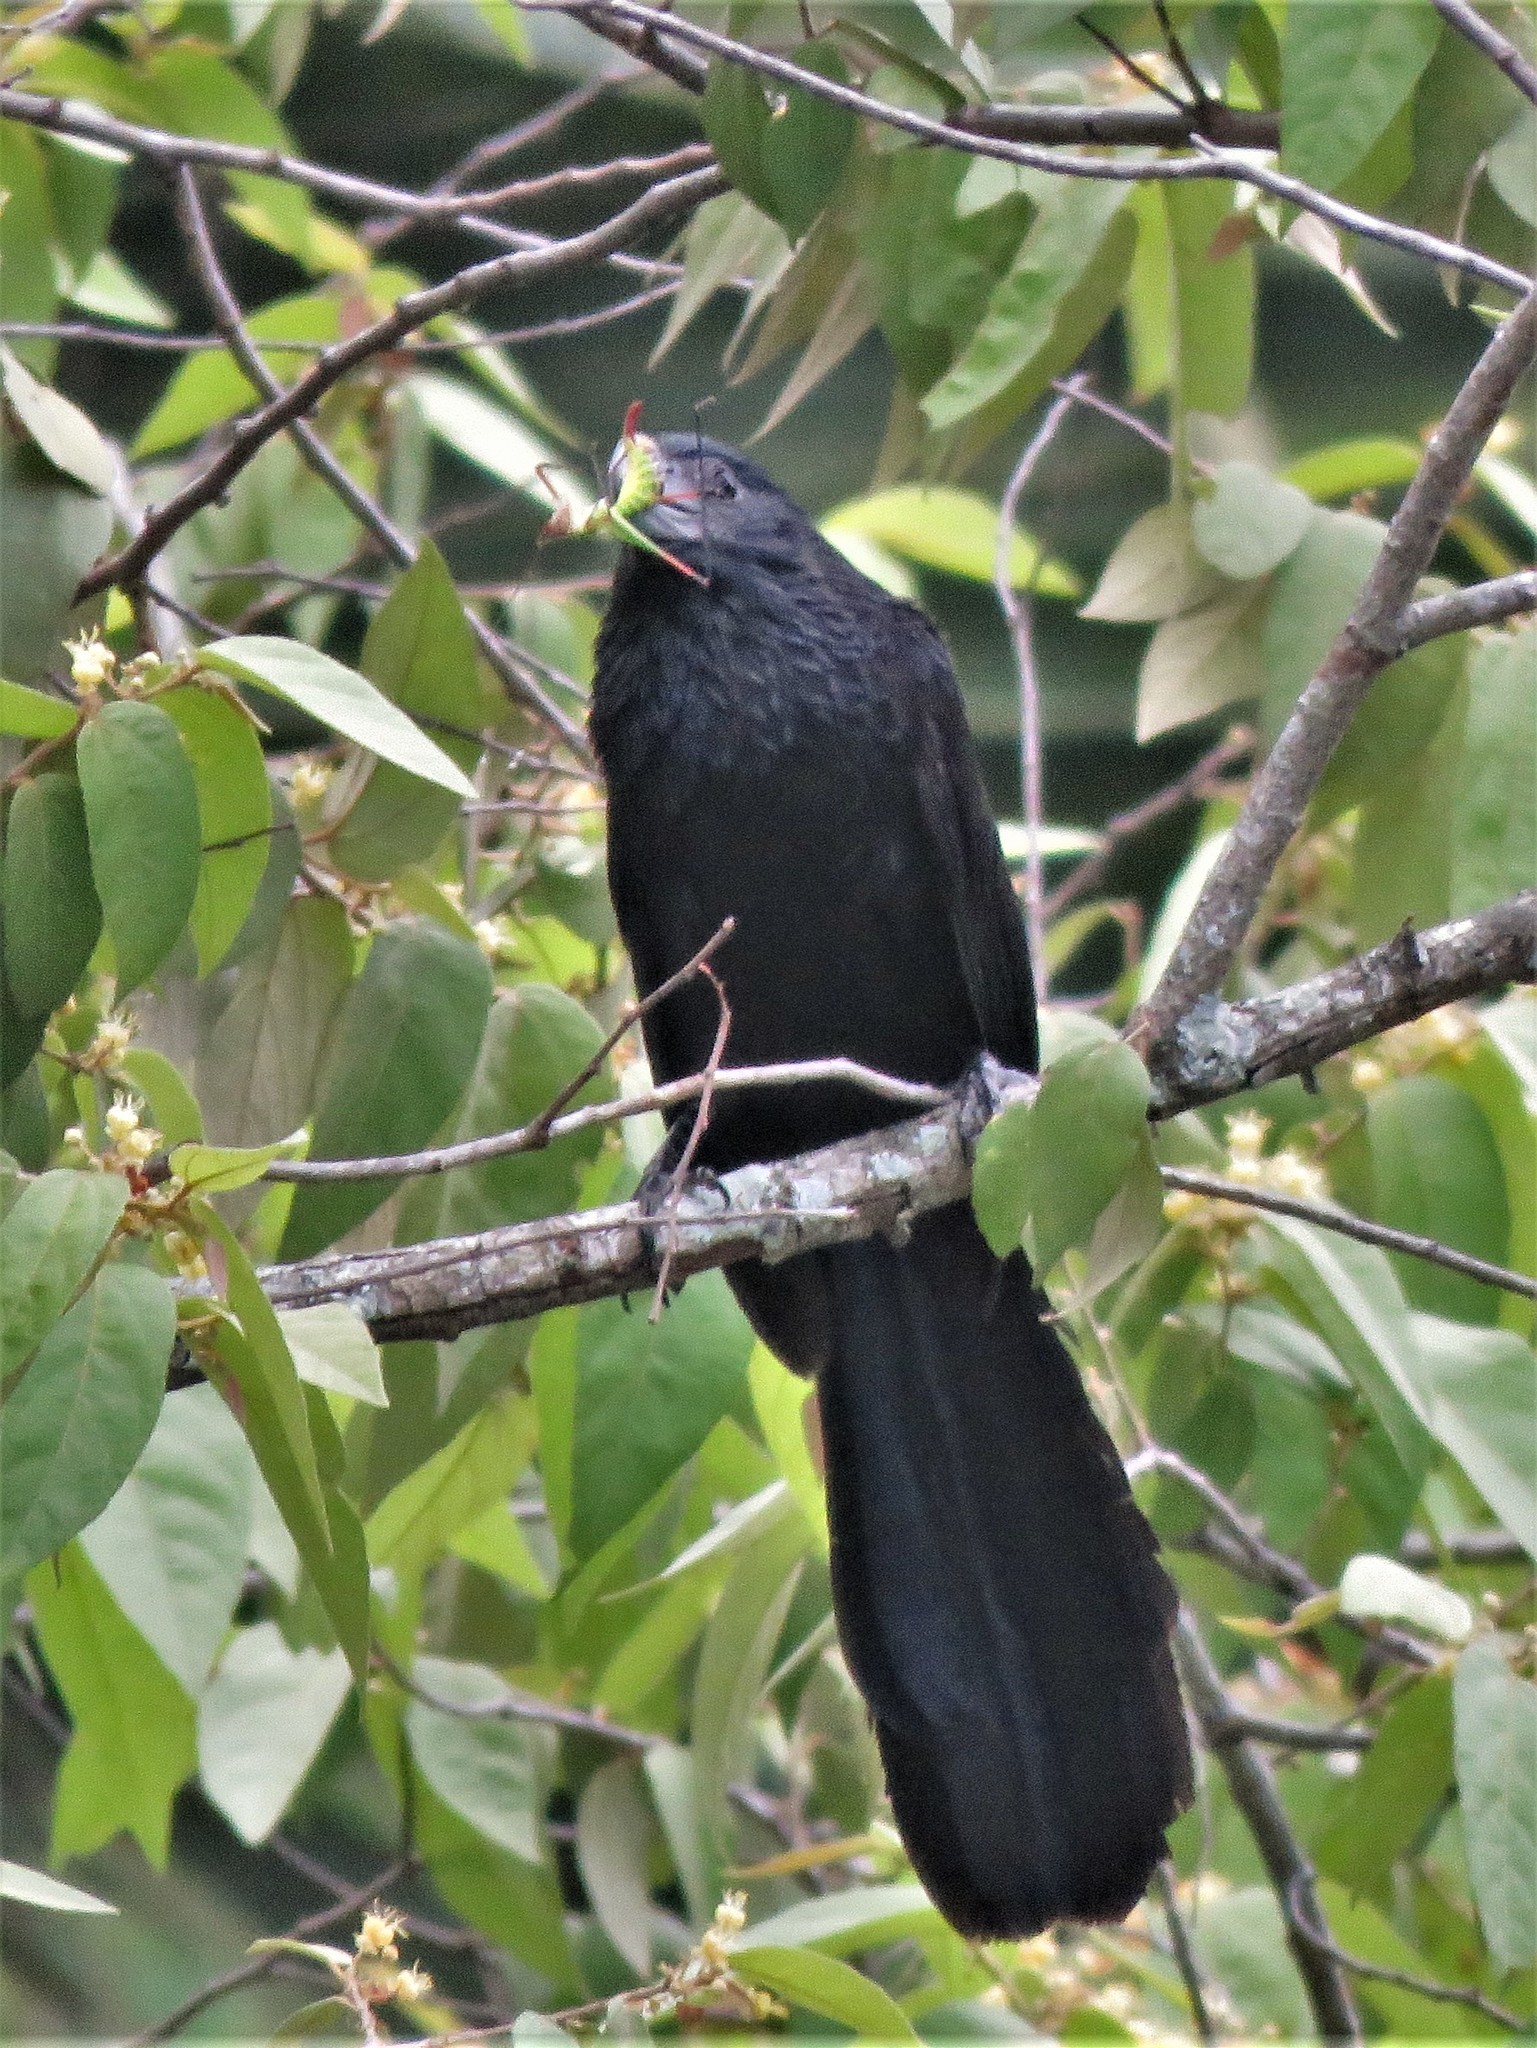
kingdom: Animalia
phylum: Chordata
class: Aves
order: Cuculiformes
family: Cuculidae
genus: Crotophaga
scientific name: Crotophaga sulcirostris
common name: Groove-billed ani
